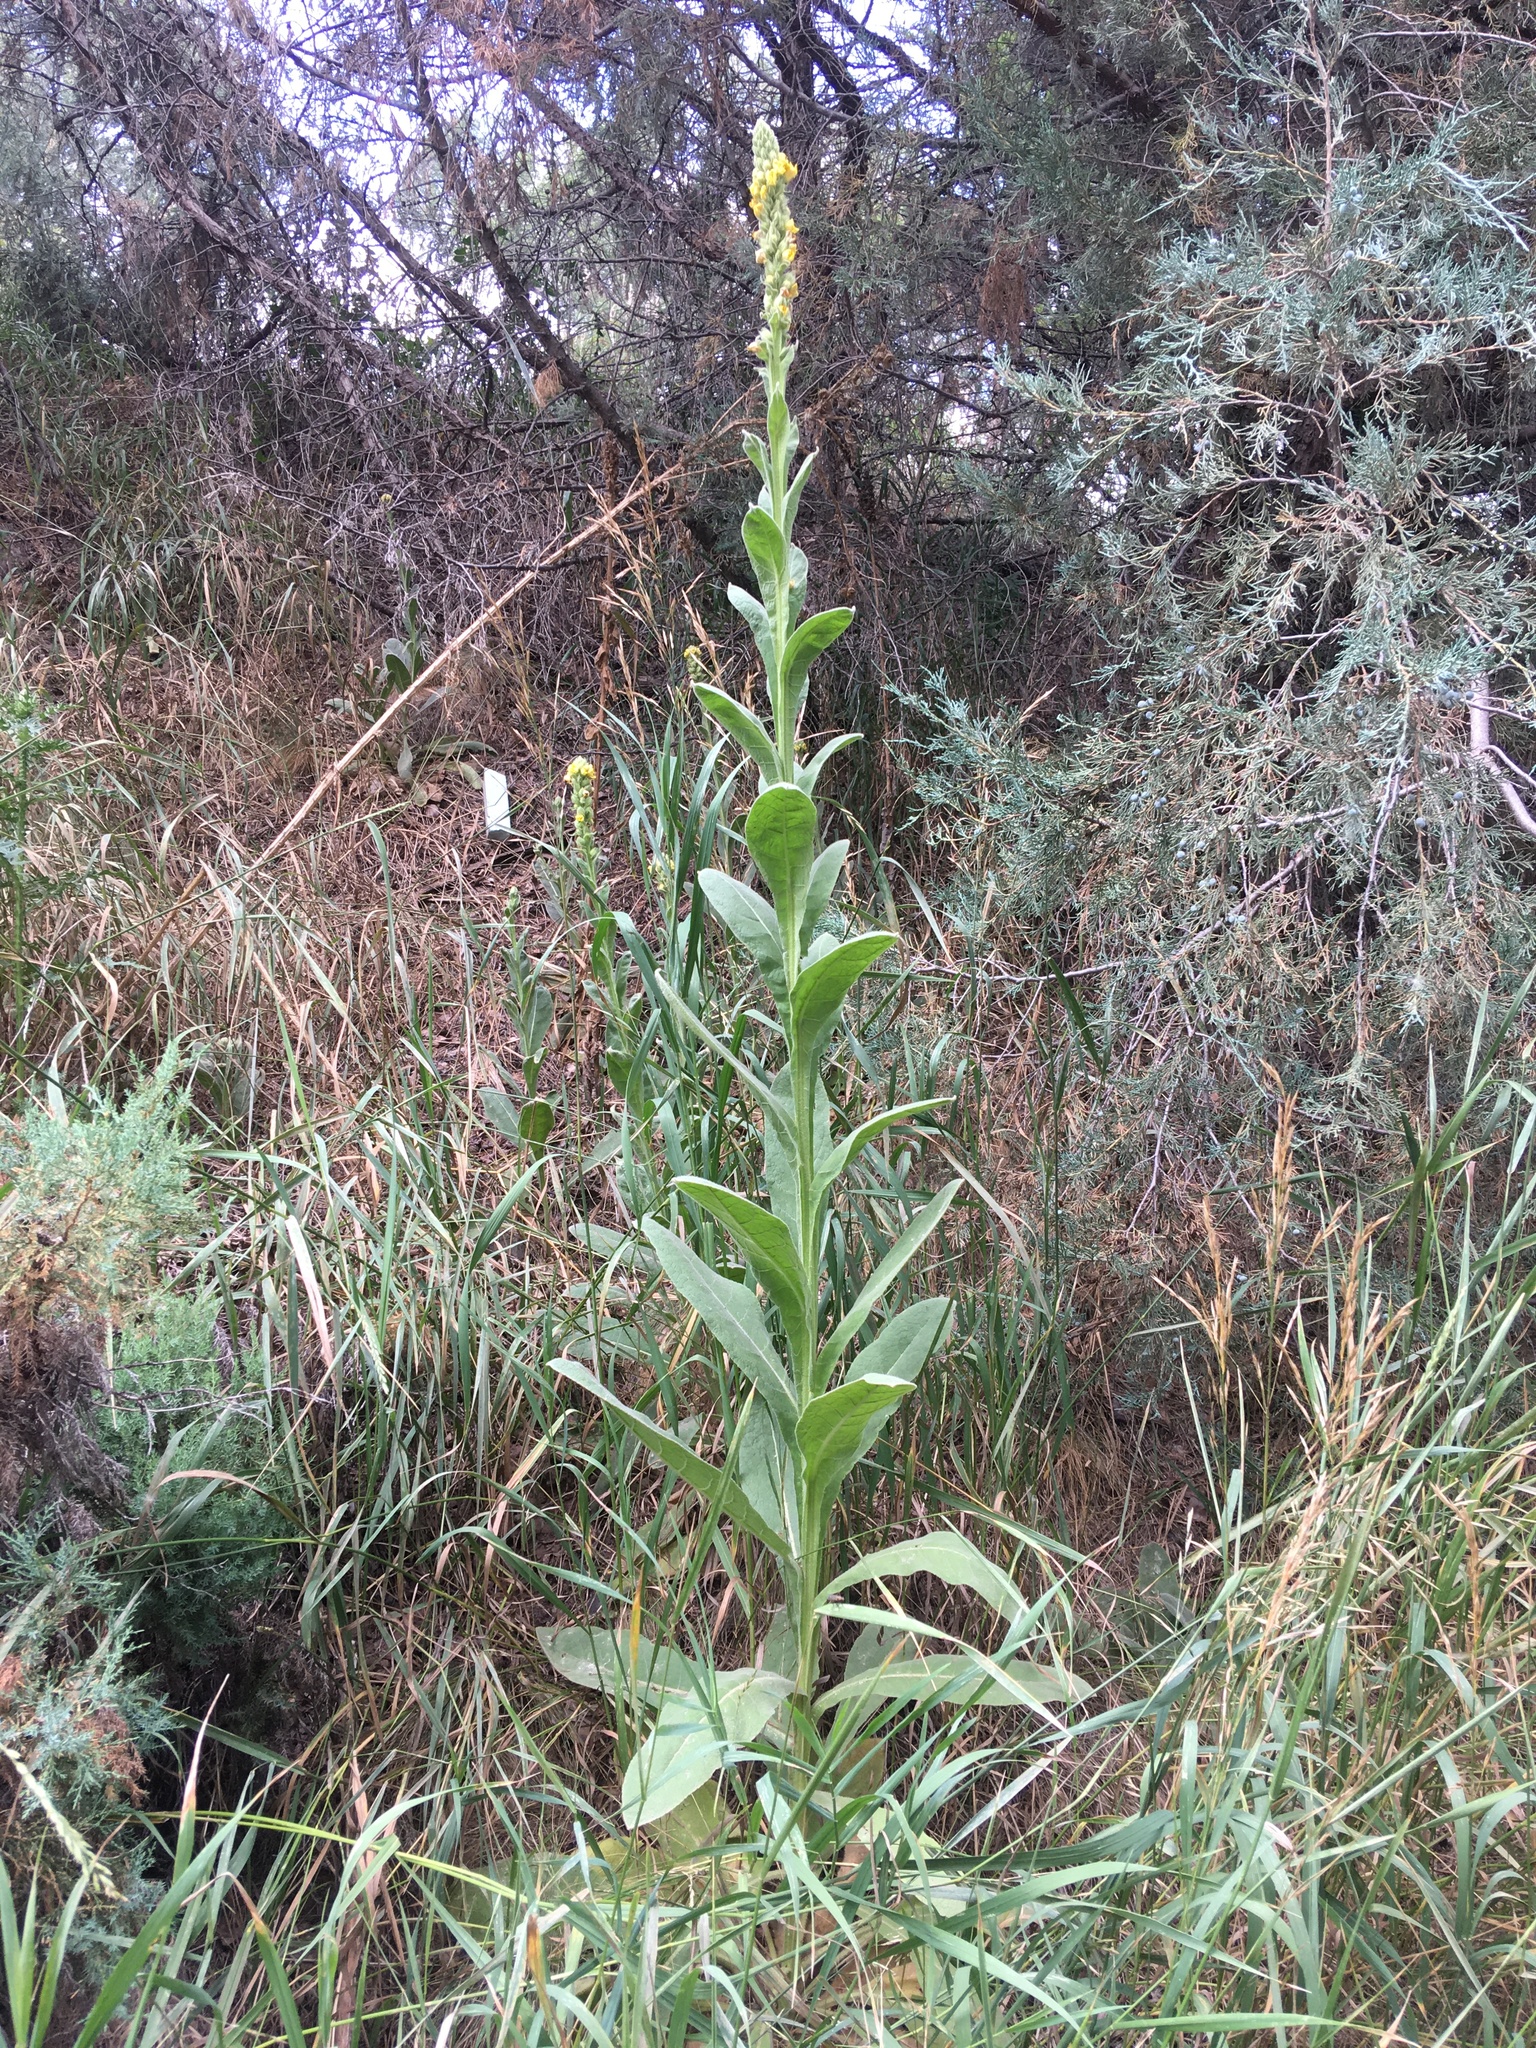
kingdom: Plantae
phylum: Tracheophyta
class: Magnoliopsida
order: Lamiales
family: Scrophulariaceae
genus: Verbascum
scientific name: Verbascum thapsus
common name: Common mullein
